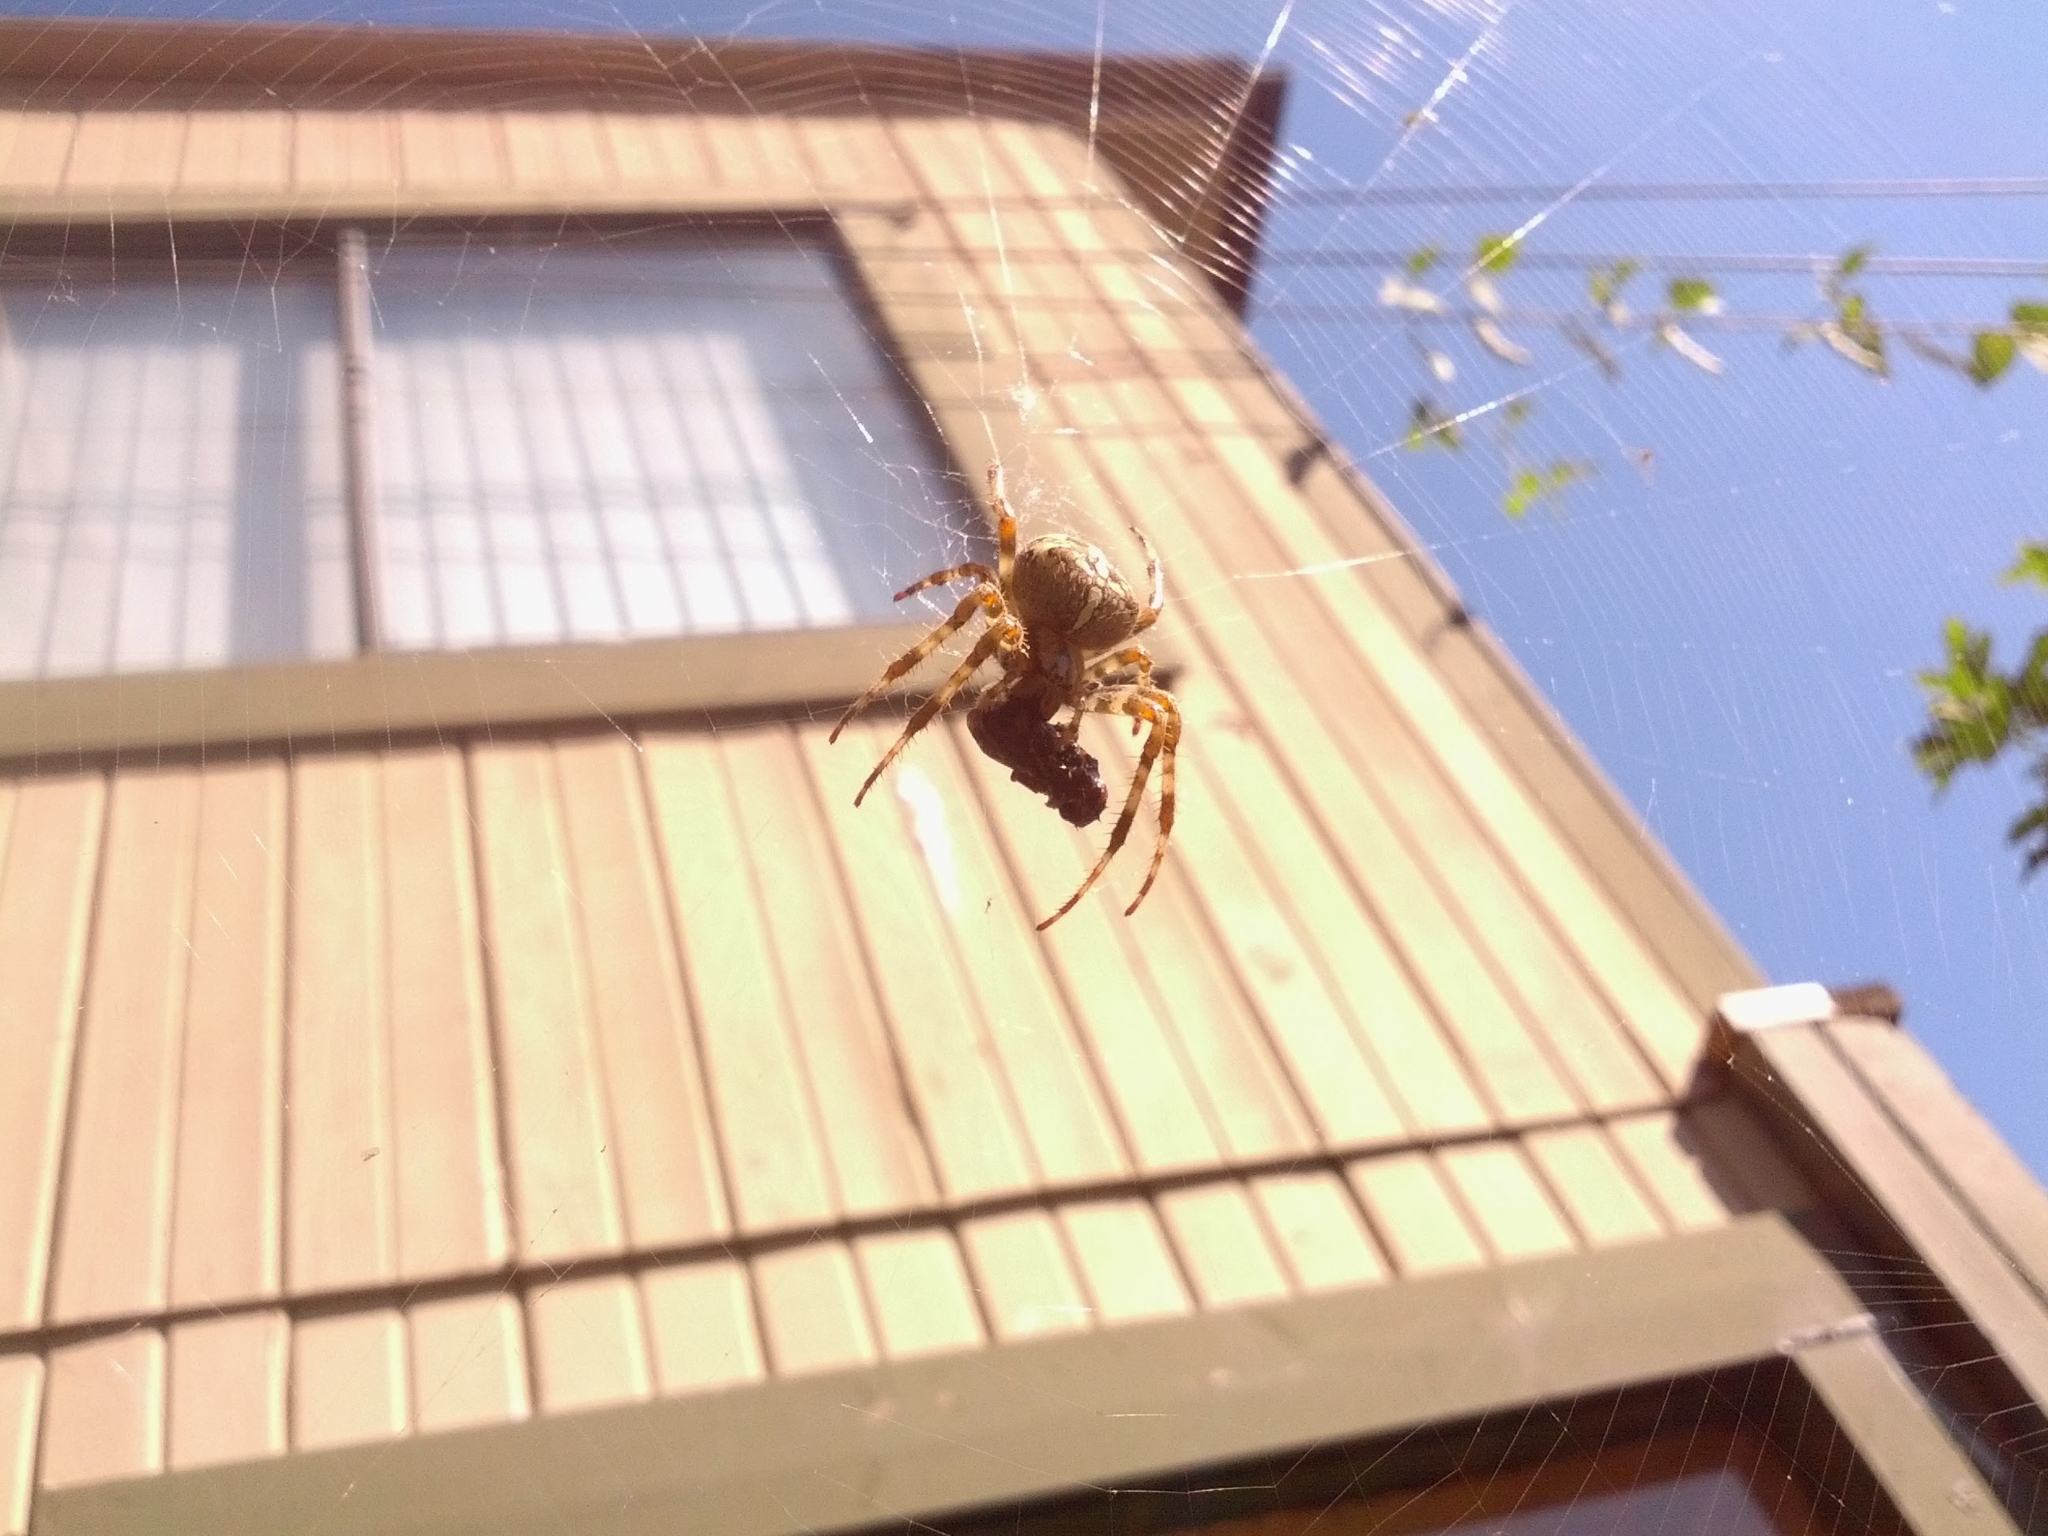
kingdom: Animalia
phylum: Arthropoda
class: Arachnida
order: Araneae
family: Araneidae
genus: Araneus
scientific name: Araneus diadematus
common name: Cross orbweaver
